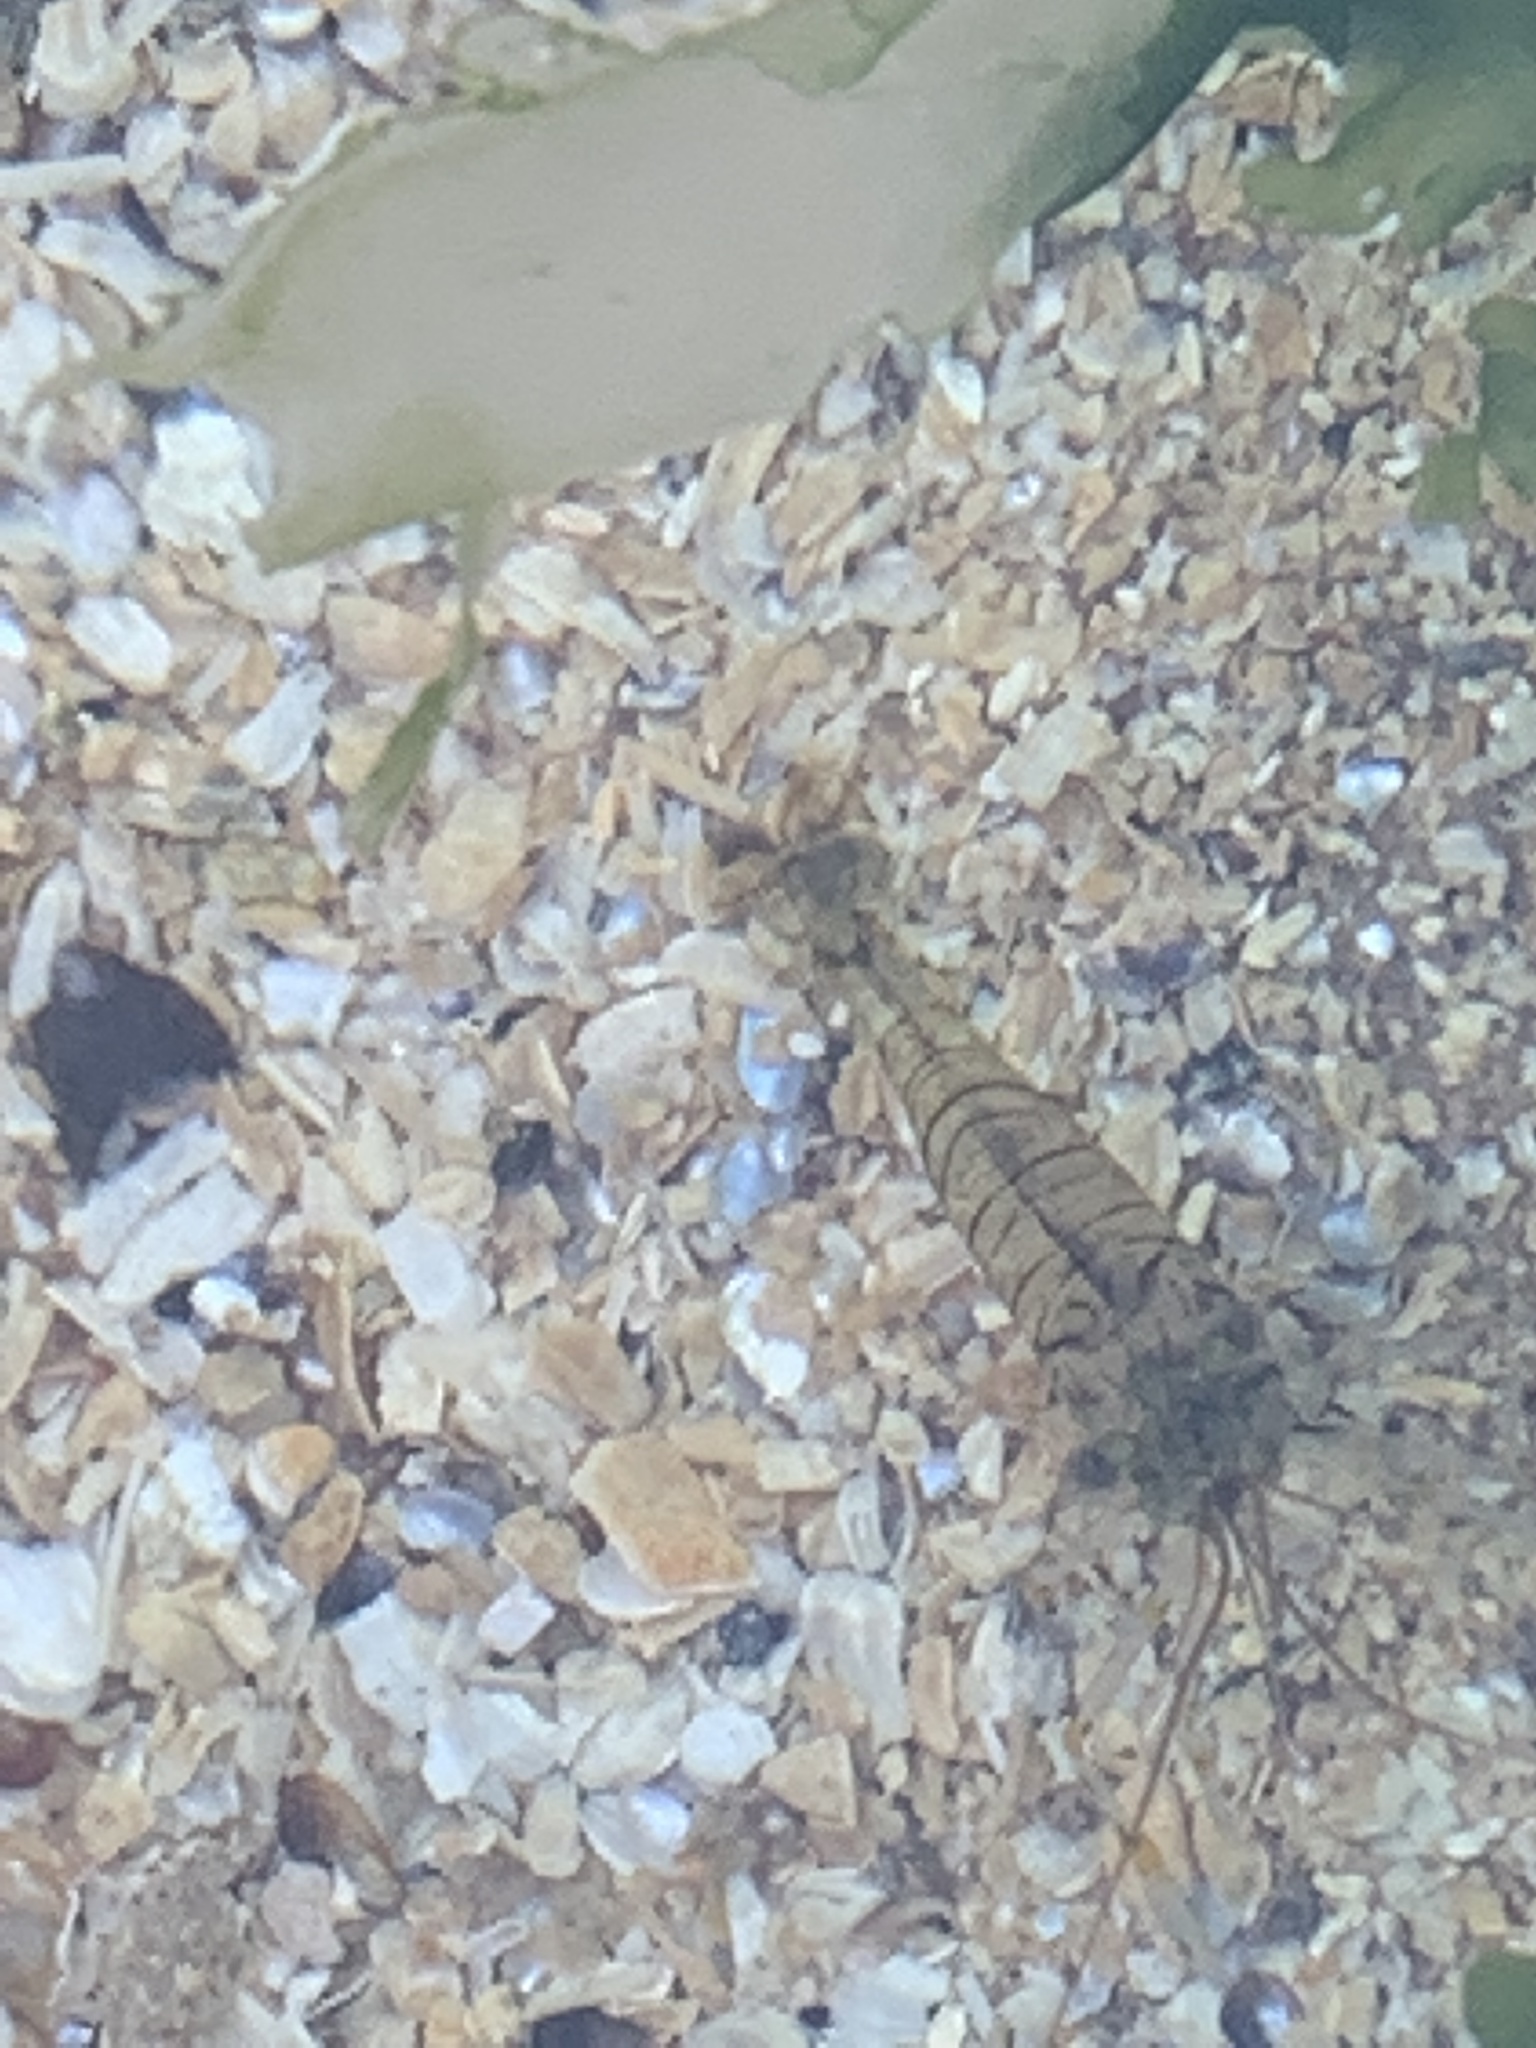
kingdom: Animalia
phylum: Arthropoda
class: Malacostraca
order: Decapoda
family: Palaemonidae
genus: Palaemon
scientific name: Palaemon elegans
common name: Grass prawm
